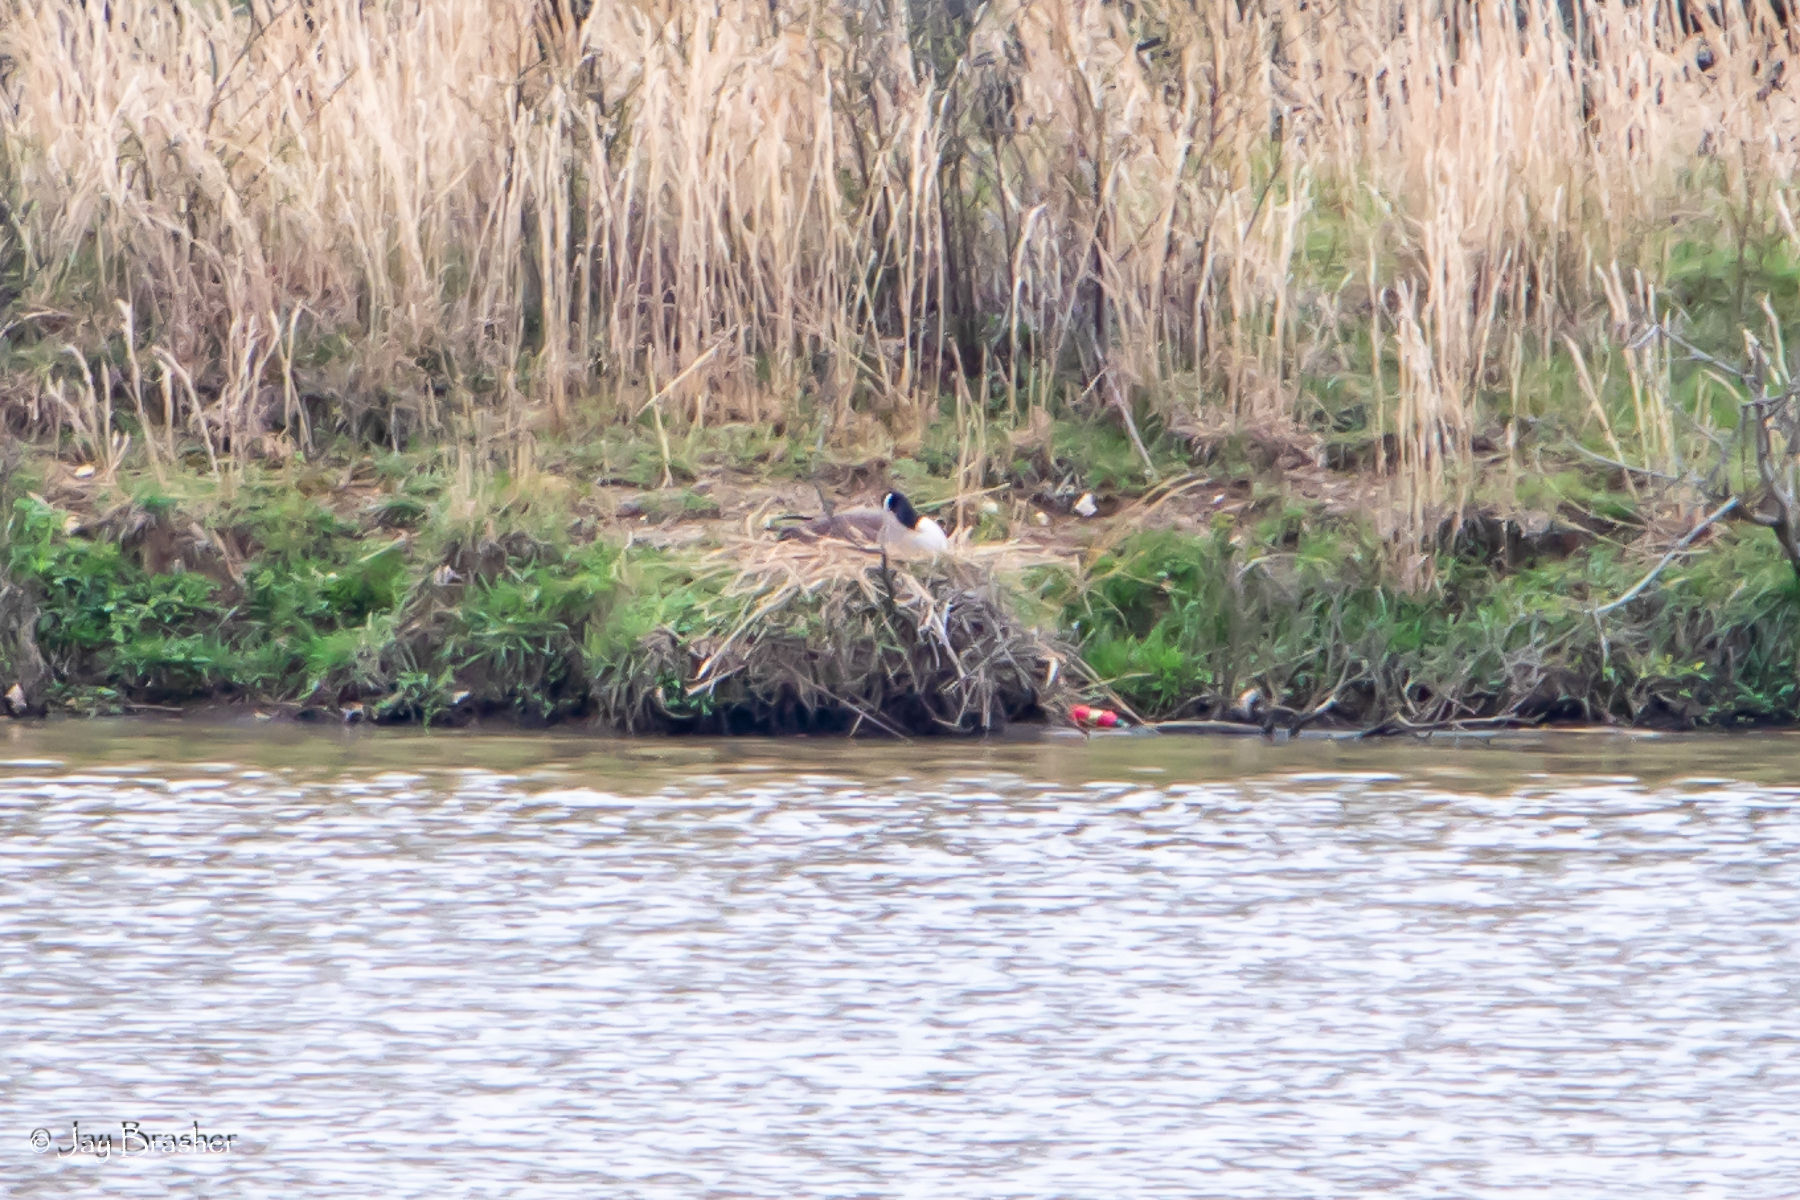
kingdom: Animalia
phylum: Chordata
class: Aves
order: Anseriformes
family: Anatidae
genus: Branta
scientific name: Branta canadensis
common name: Canada goose
